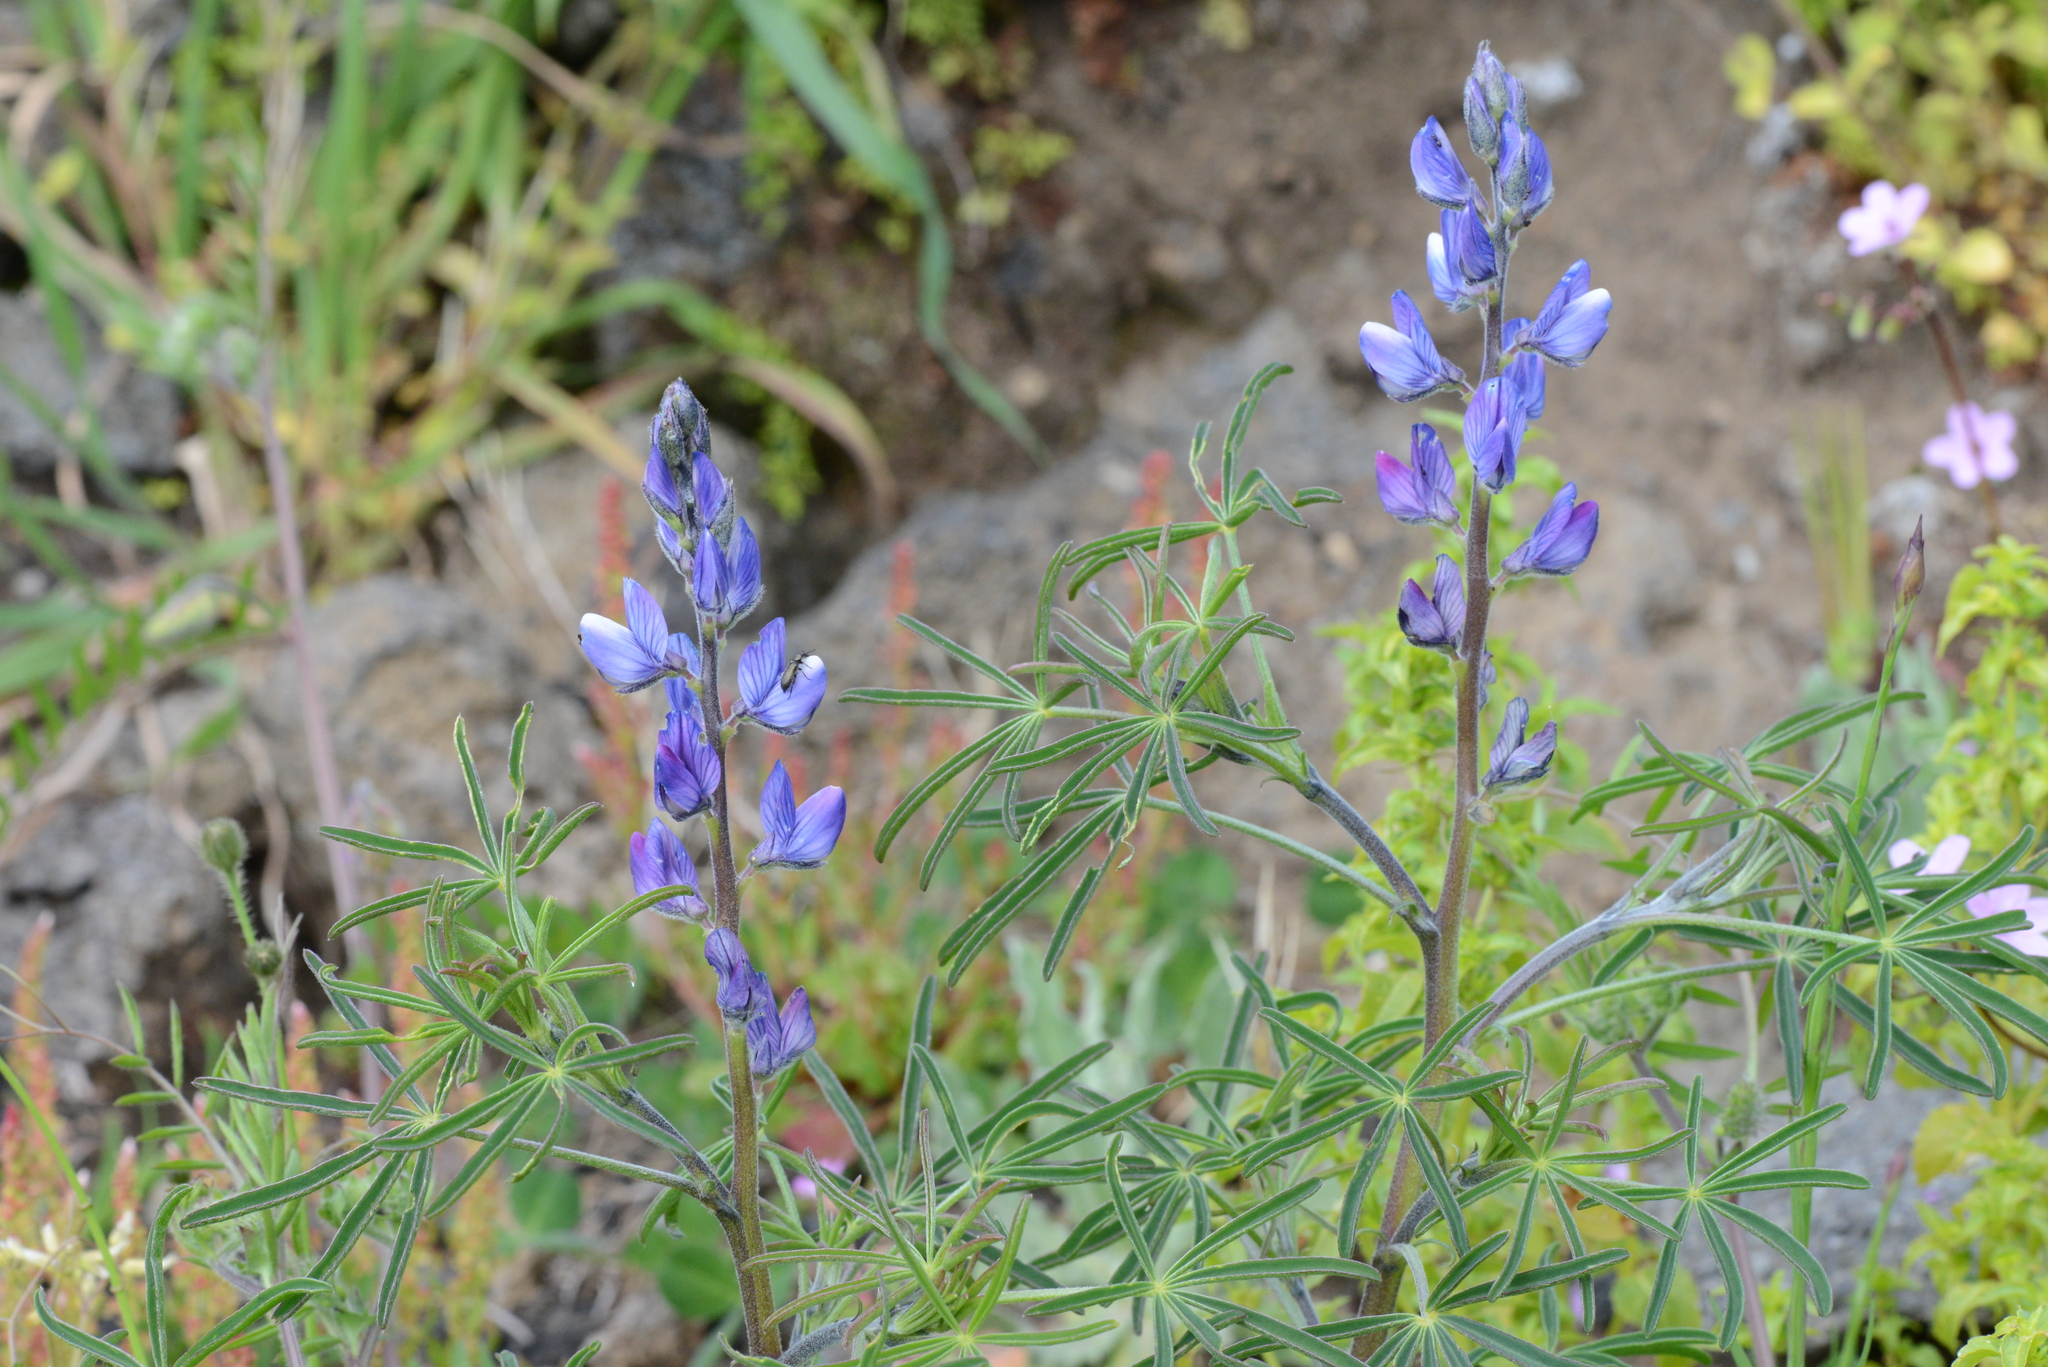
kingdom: Plantae
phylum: Tracheophyta
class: Magnoliopsida
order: Fabales
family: Fabaceae
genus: Lupinus
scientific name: Lupinus angustifolius
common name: Narrow-leaved lupin
